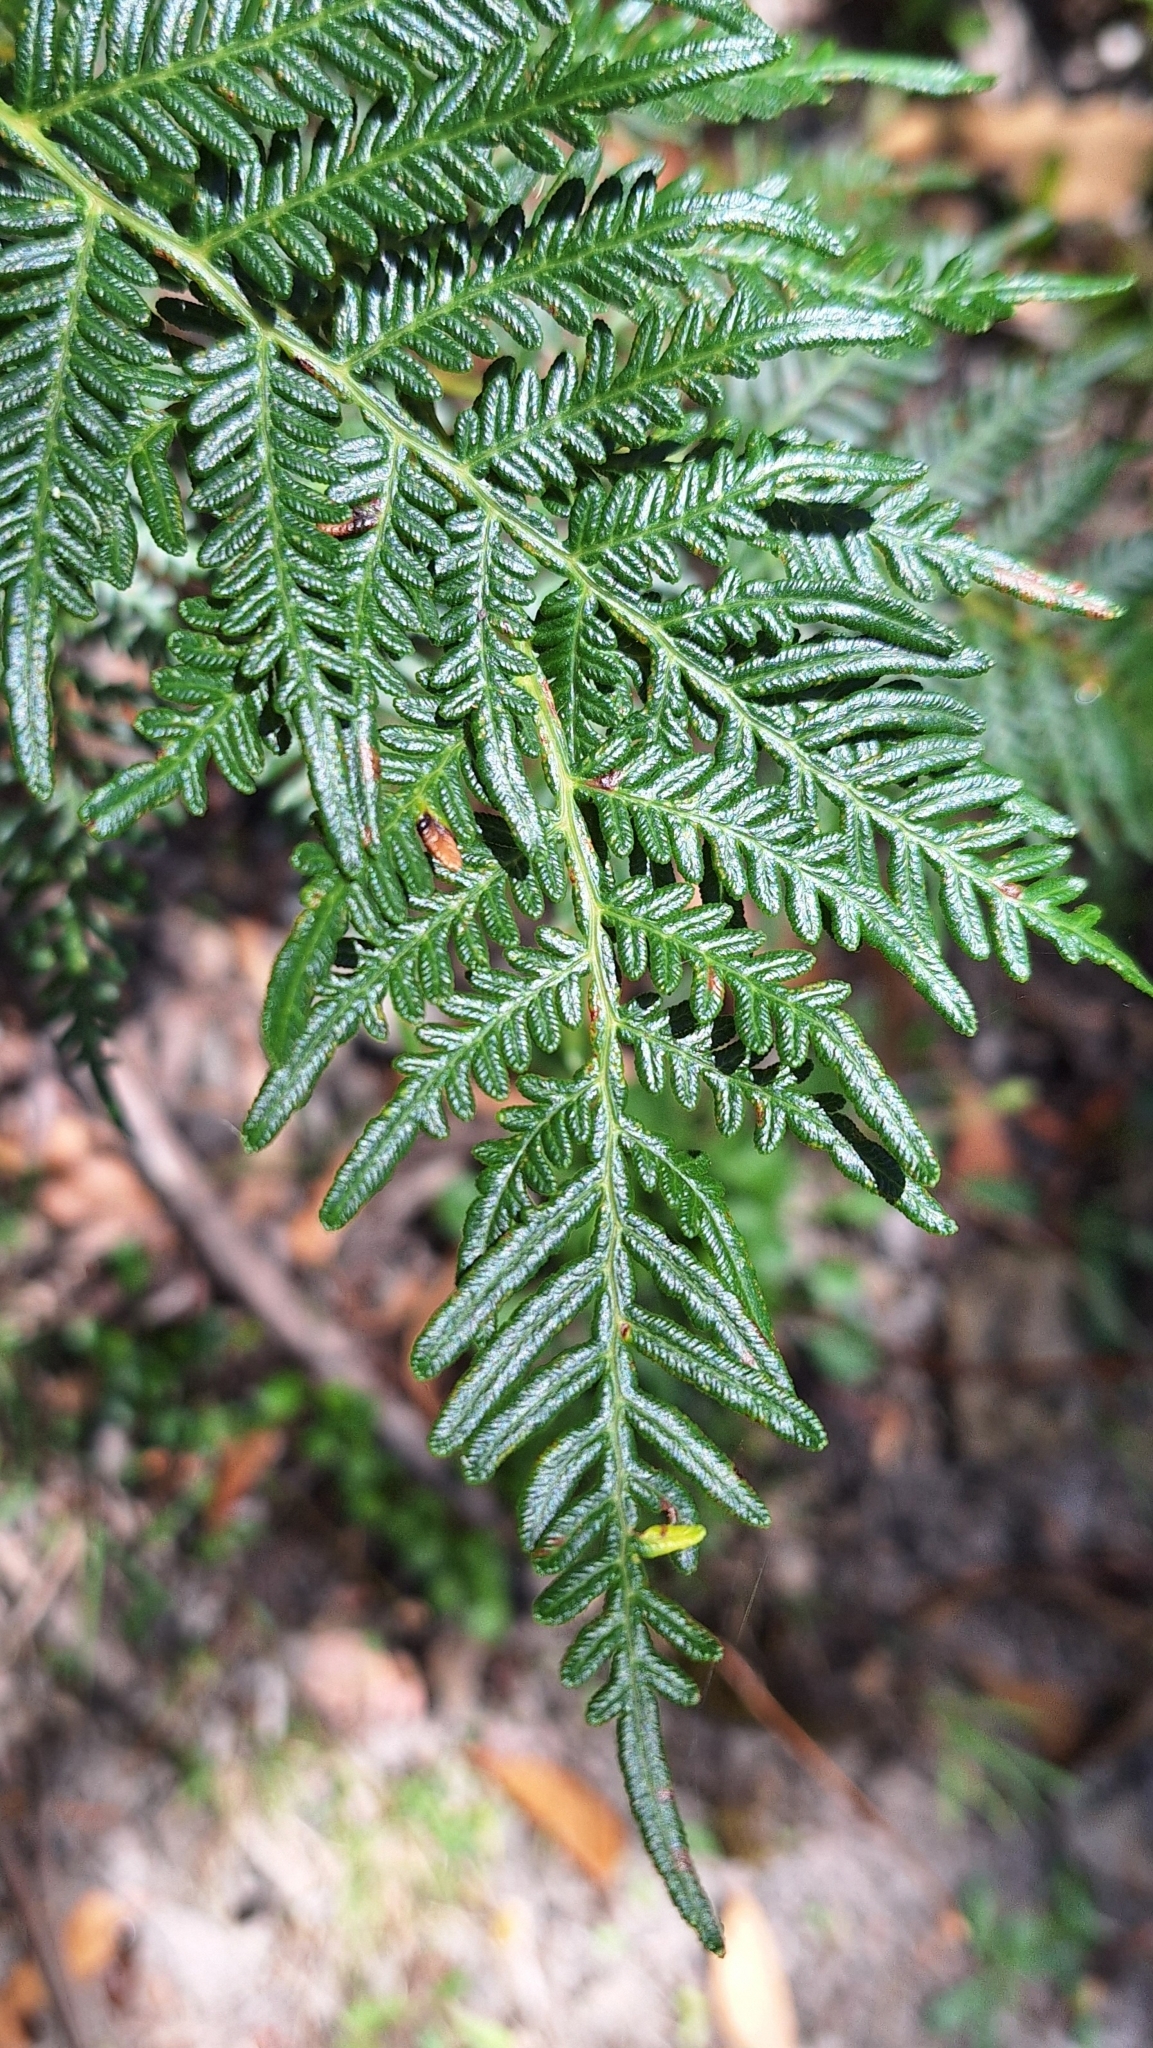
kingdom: Plantae
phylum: Tracheophyta
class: Polypodiopsida
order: Polypodiales
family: Dennstaedtiaceae
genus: Pteridium
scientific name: Pteridium esculentum
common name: Bracken fern
